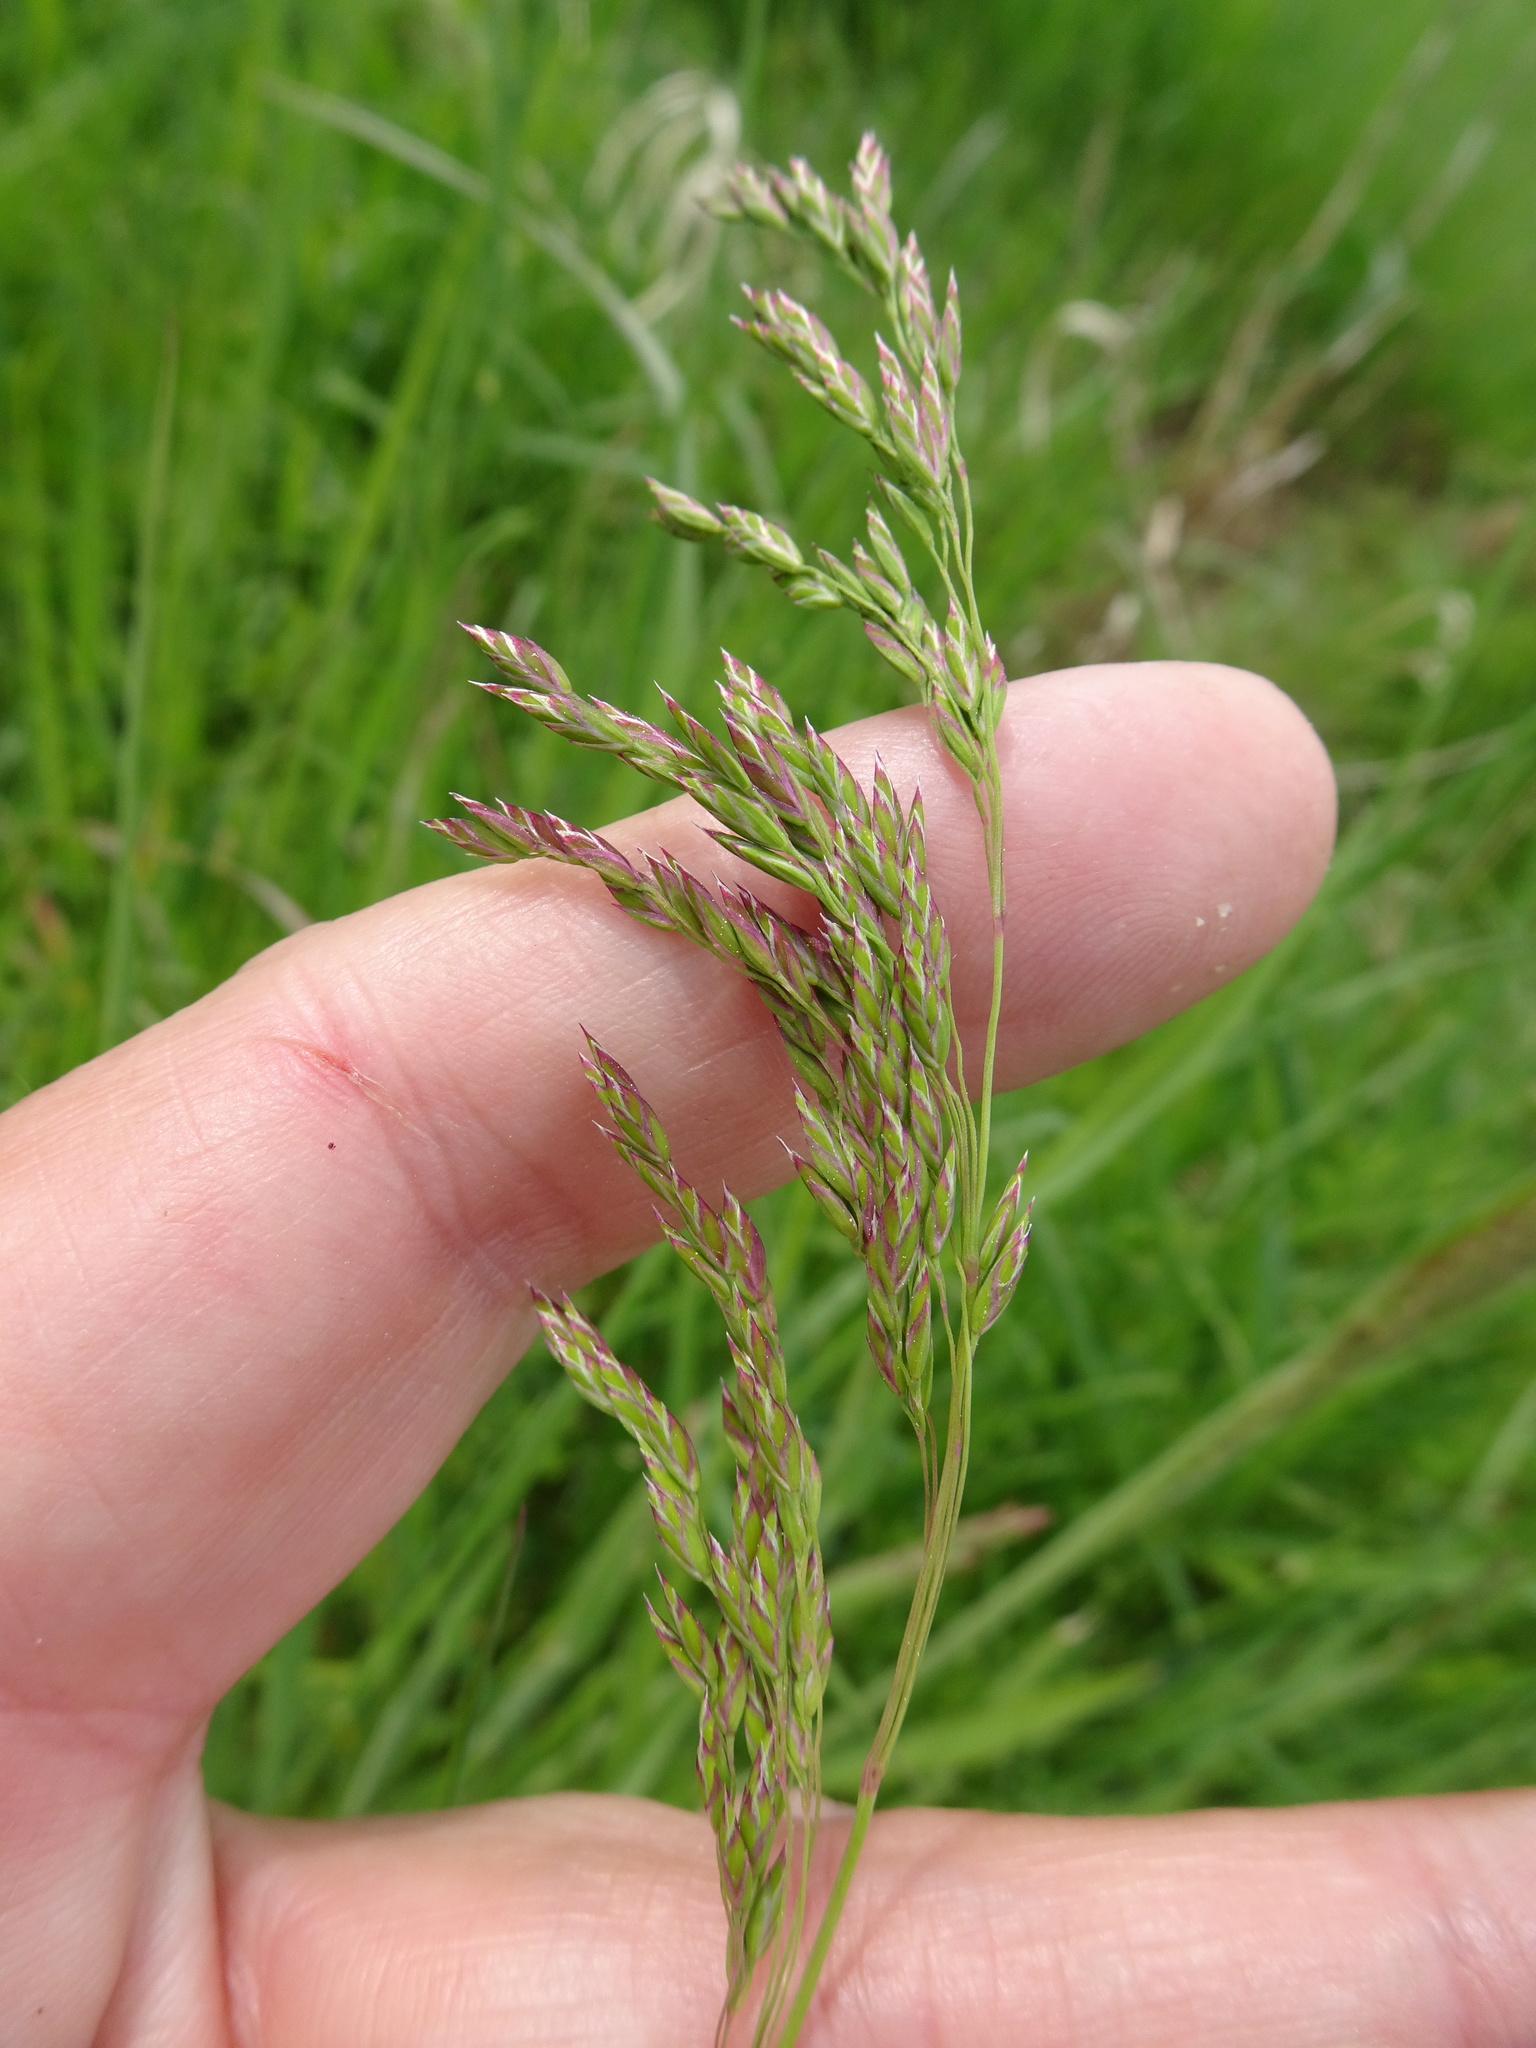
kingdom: Plantae
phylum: Tracheophyta
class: Liliopsida
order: Poales
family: Poaceae
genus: Poa
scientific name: Poa pratensis
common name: Kentucky bluegrass
